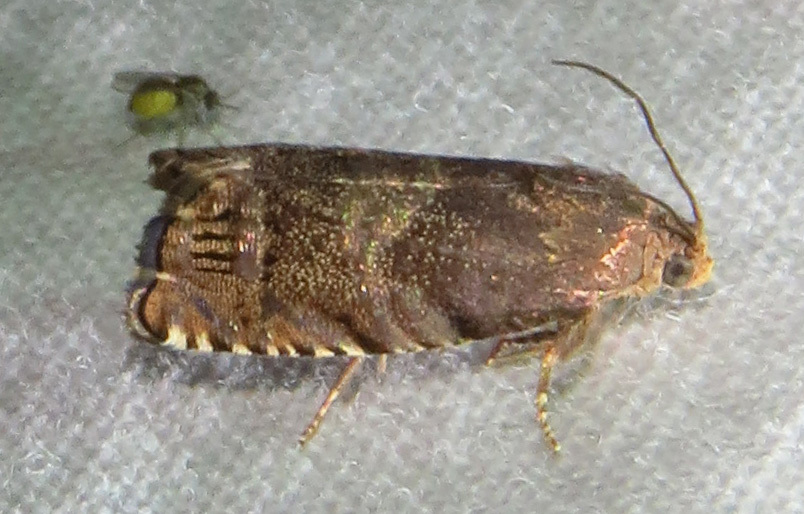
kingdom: Animalia
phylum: Arthropoda
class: Insecta
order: Lepidoptera
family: Tortricidae
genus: Cydia
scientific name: Cydia caryana
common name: Hickory shuckworm moth
